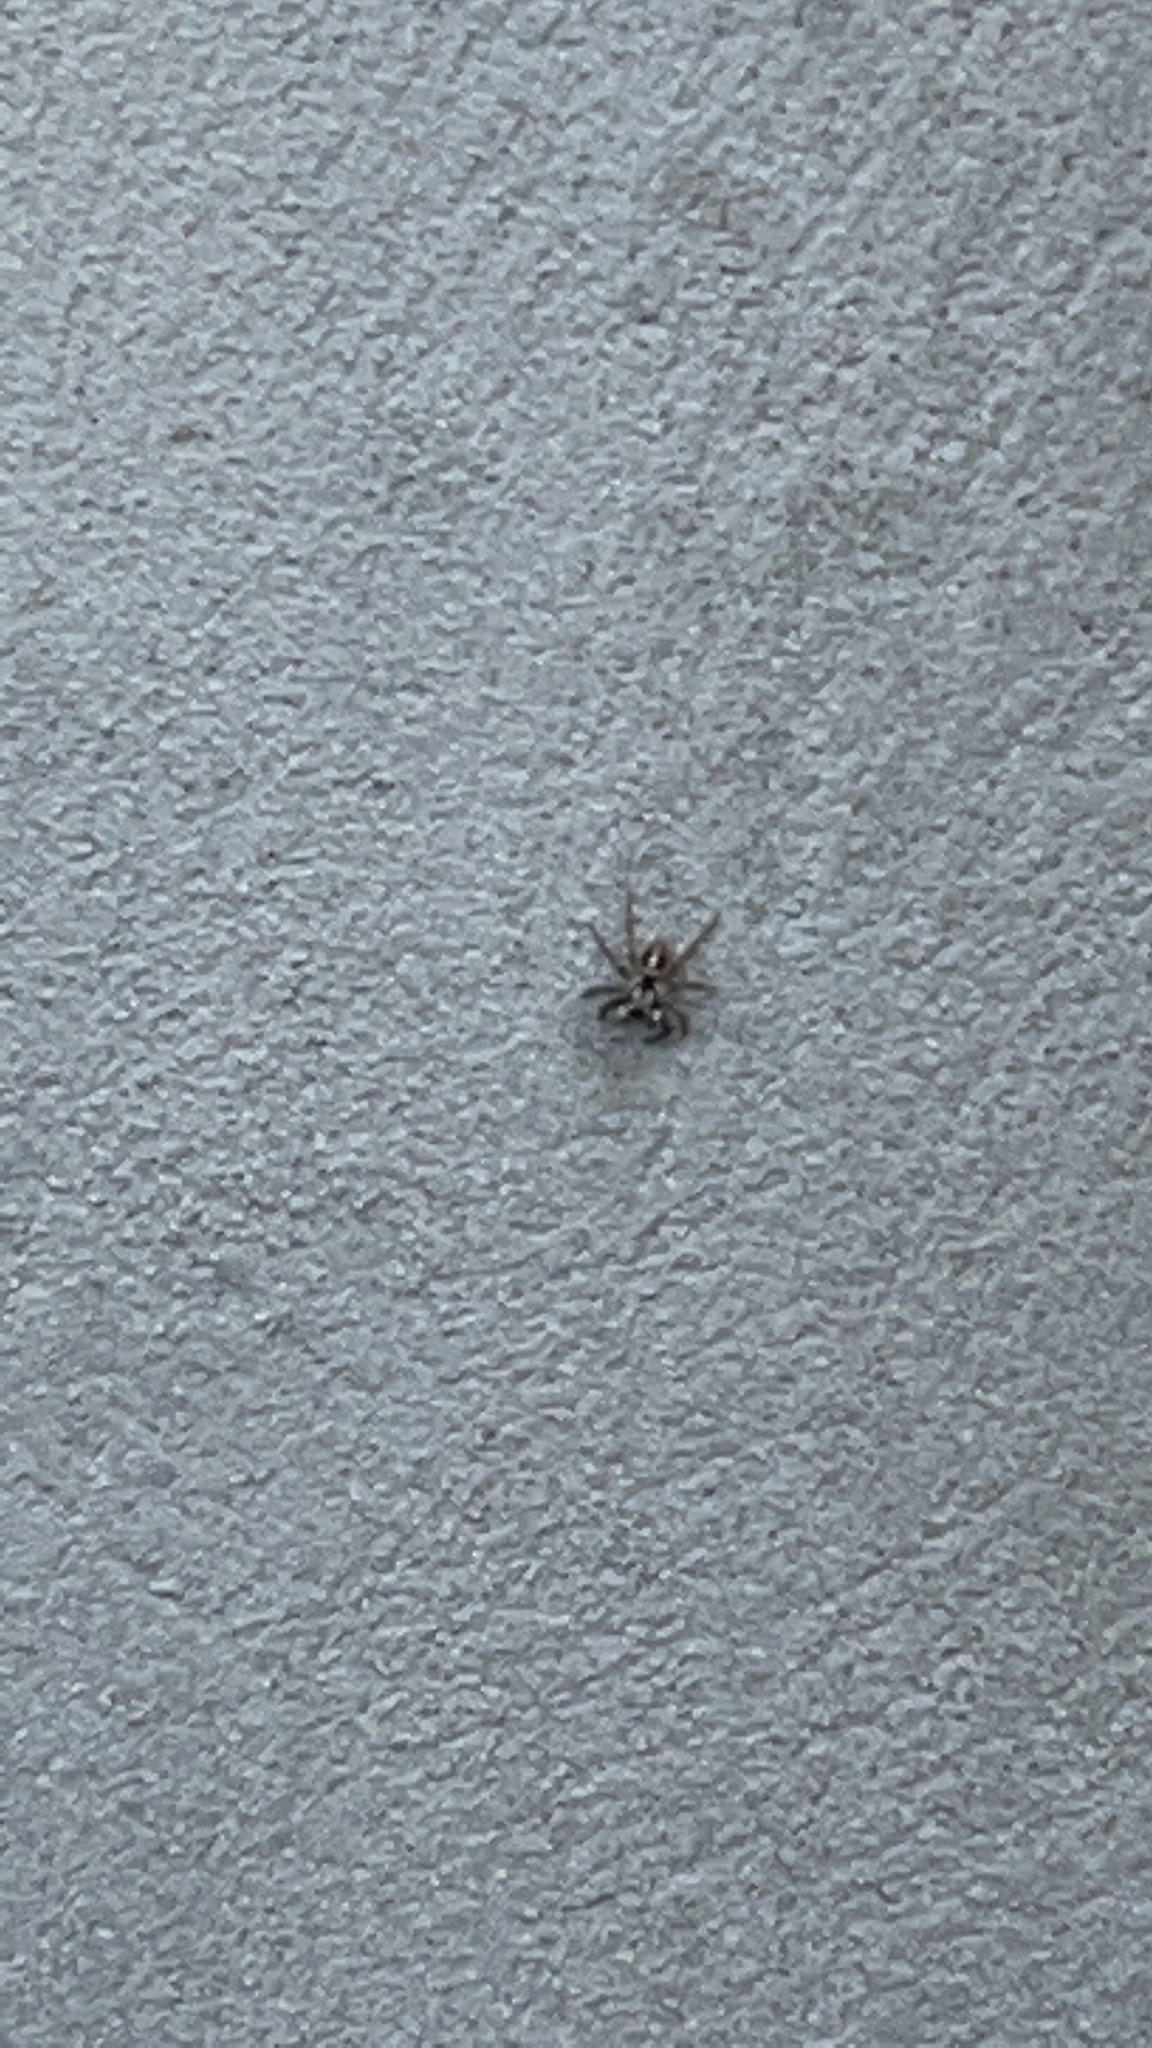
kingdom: Animalia
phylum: Arthropoda
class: Arachnida
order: Araneae
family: Salticidae
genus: Anasaitis
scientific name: Anasaitis canosa
